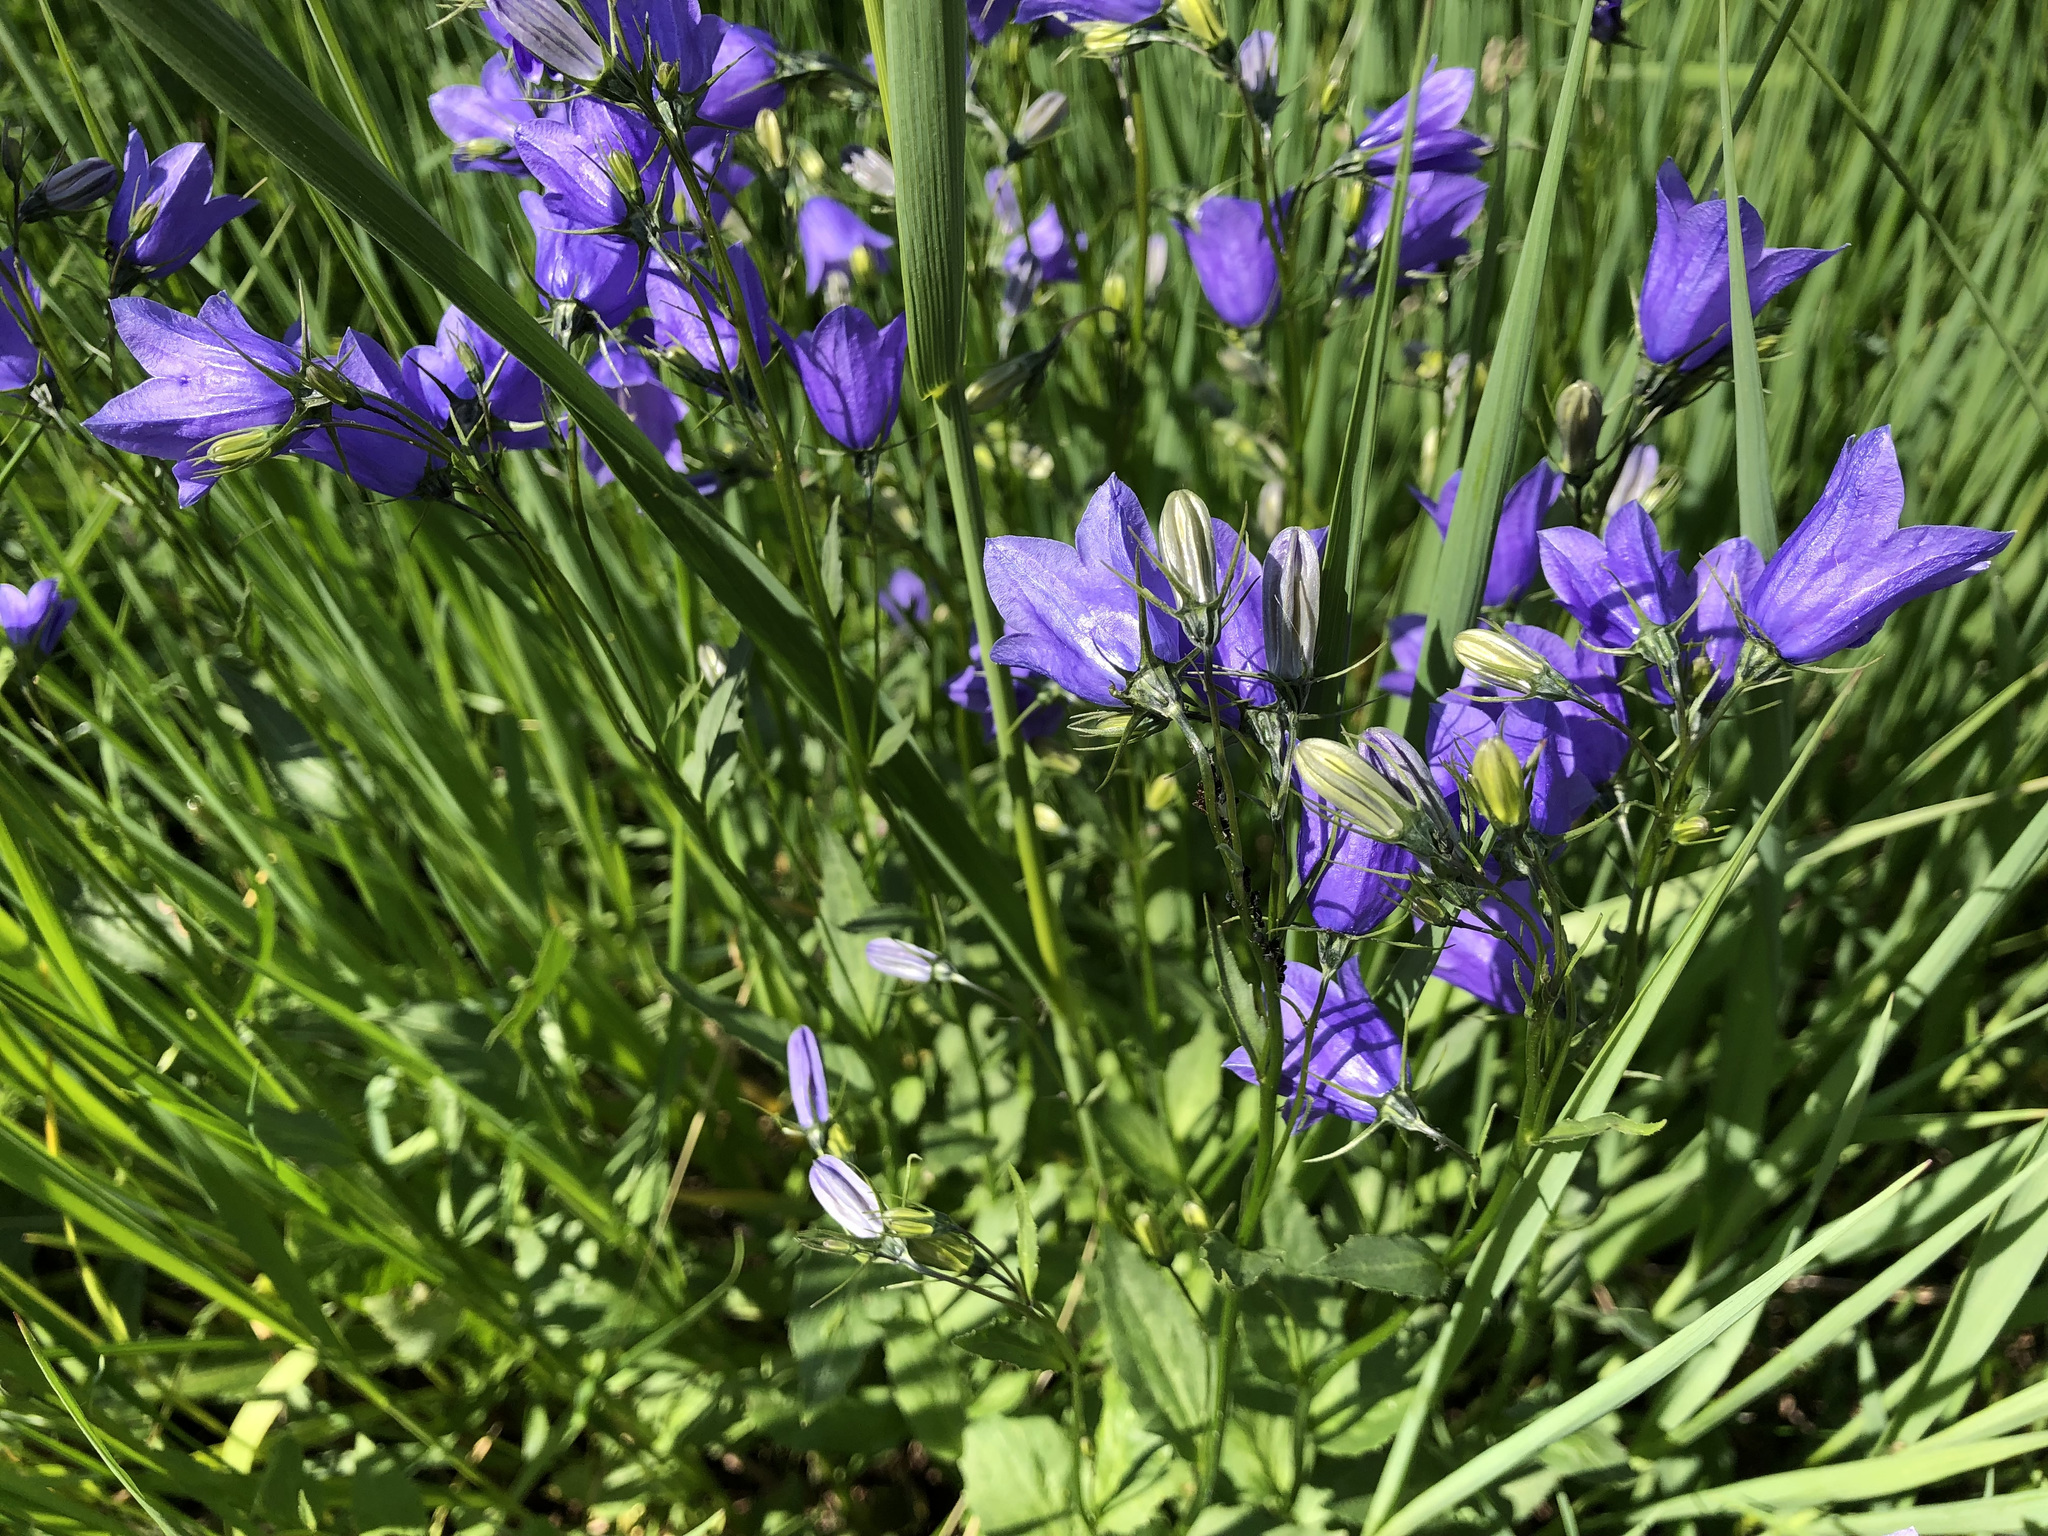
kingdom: Plantae
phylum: Tracheophyta
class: Magnoliopsida
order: Asterales
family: Campanulaceae
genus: Campanula
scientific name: Campanula rhomboidalis
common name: Broad-leaved harebell
